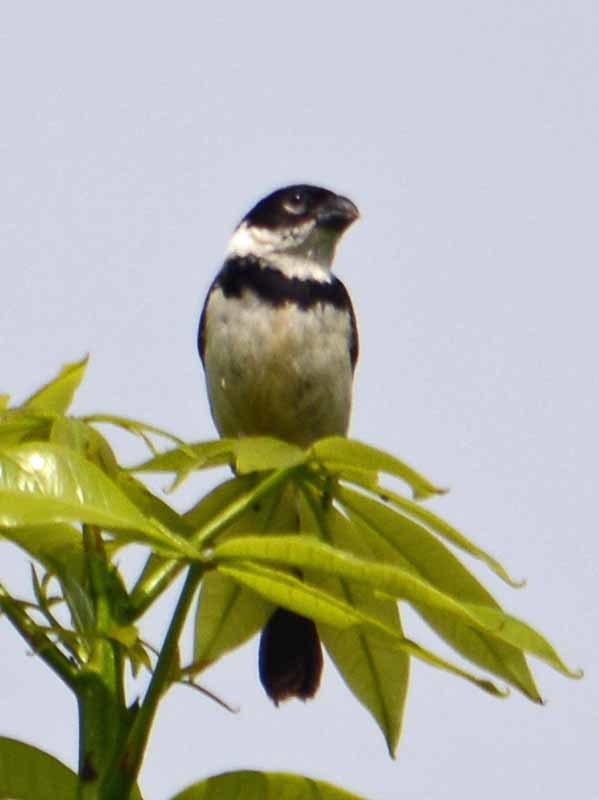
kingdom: Animalia
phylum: Chordata
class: Aves
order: Passeriformes
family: Thraupidae
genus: Sporophila
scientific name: Sporophila morelleti
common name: Morelet's seedeater
